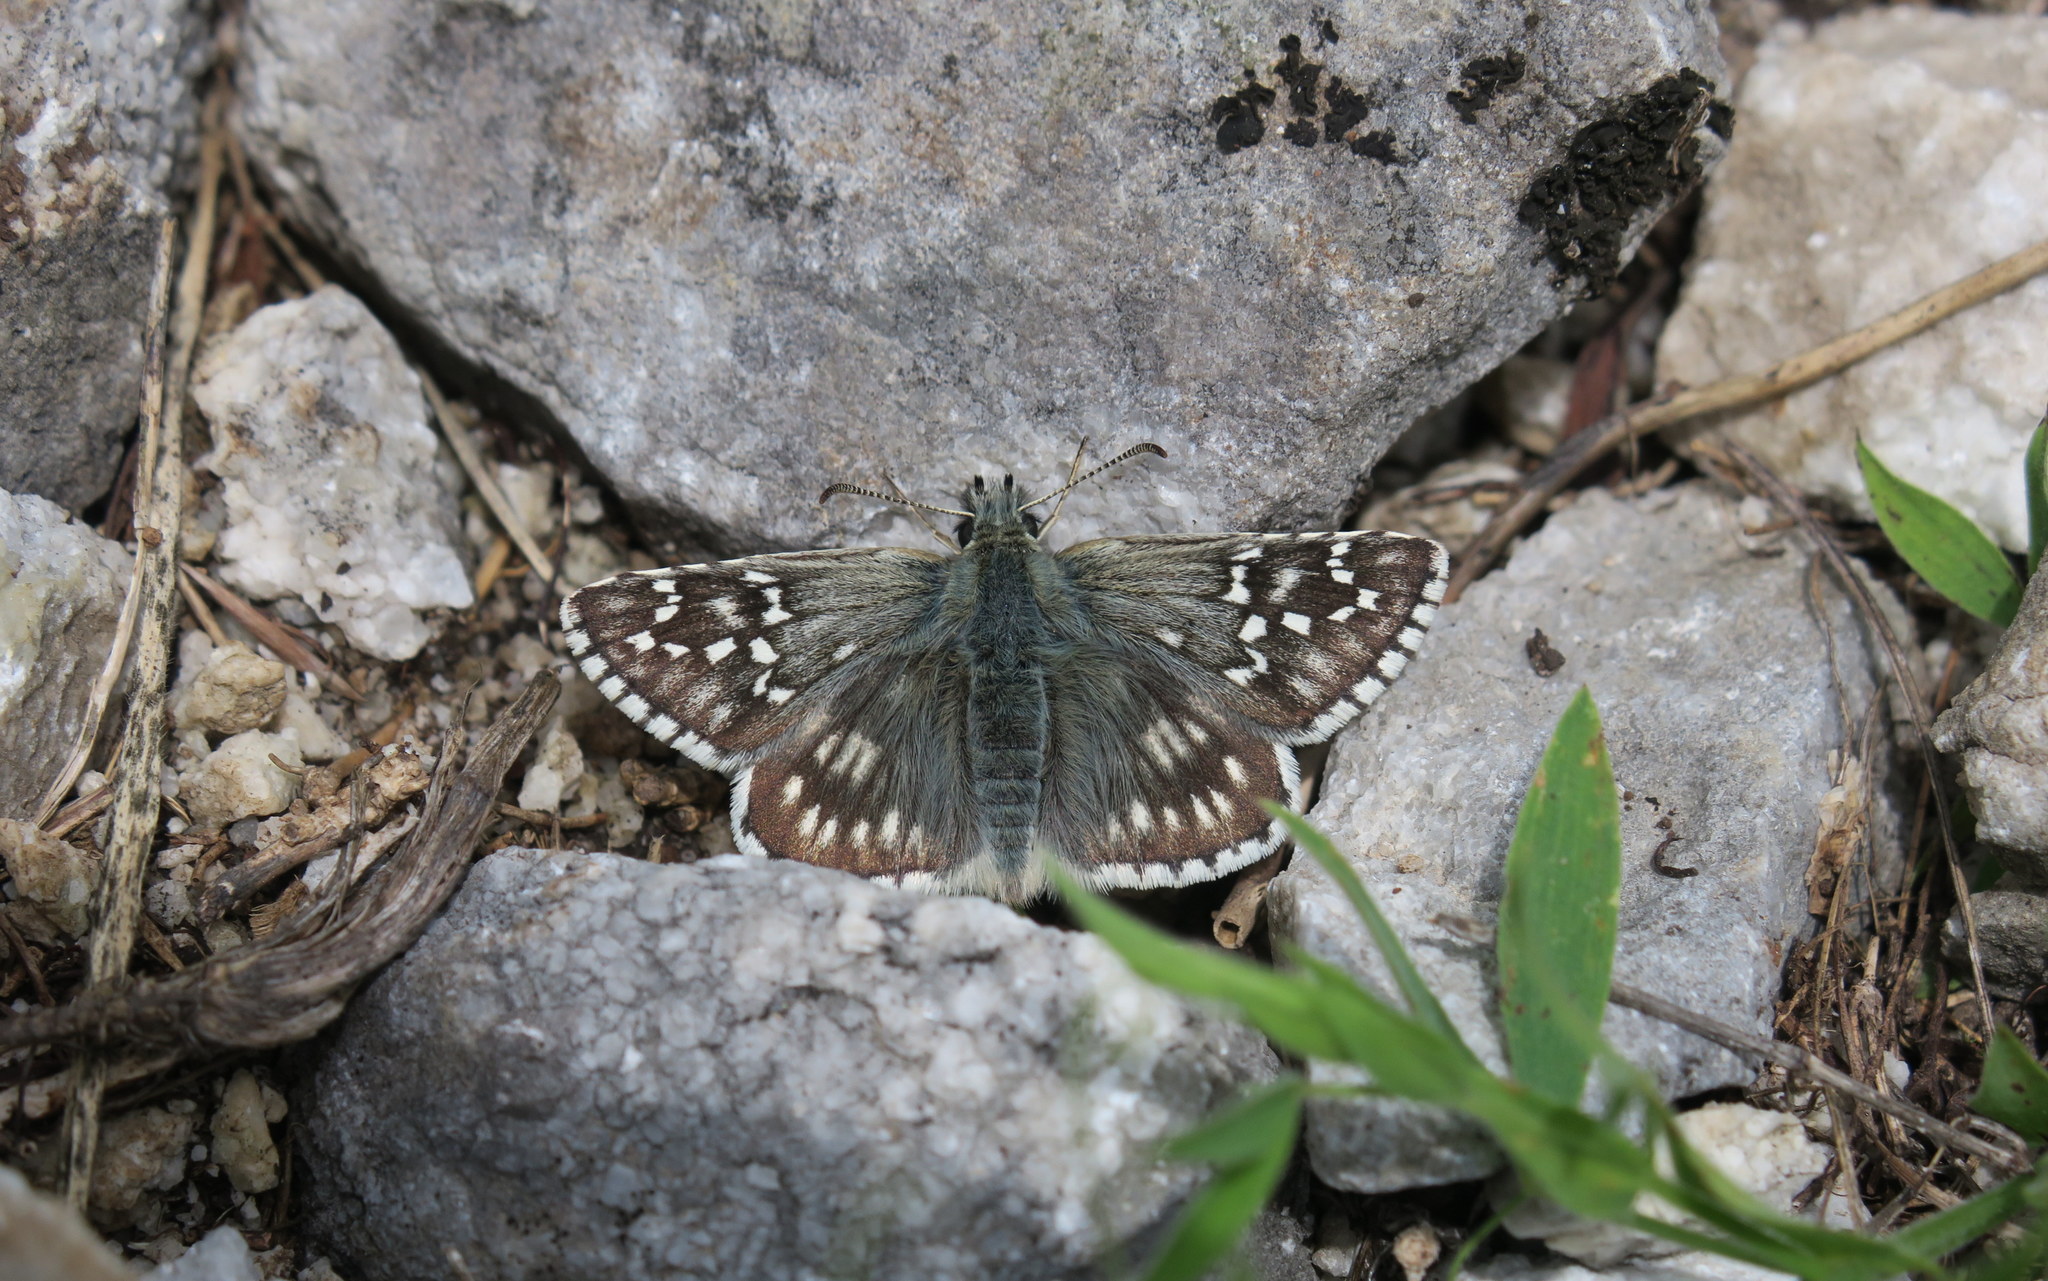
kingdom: Animalia
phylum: Arthropoda
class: Insecta
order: Lepidoptera
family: Hesperiidae
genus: Pyrgus
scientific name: Pyrgus fritillarius
